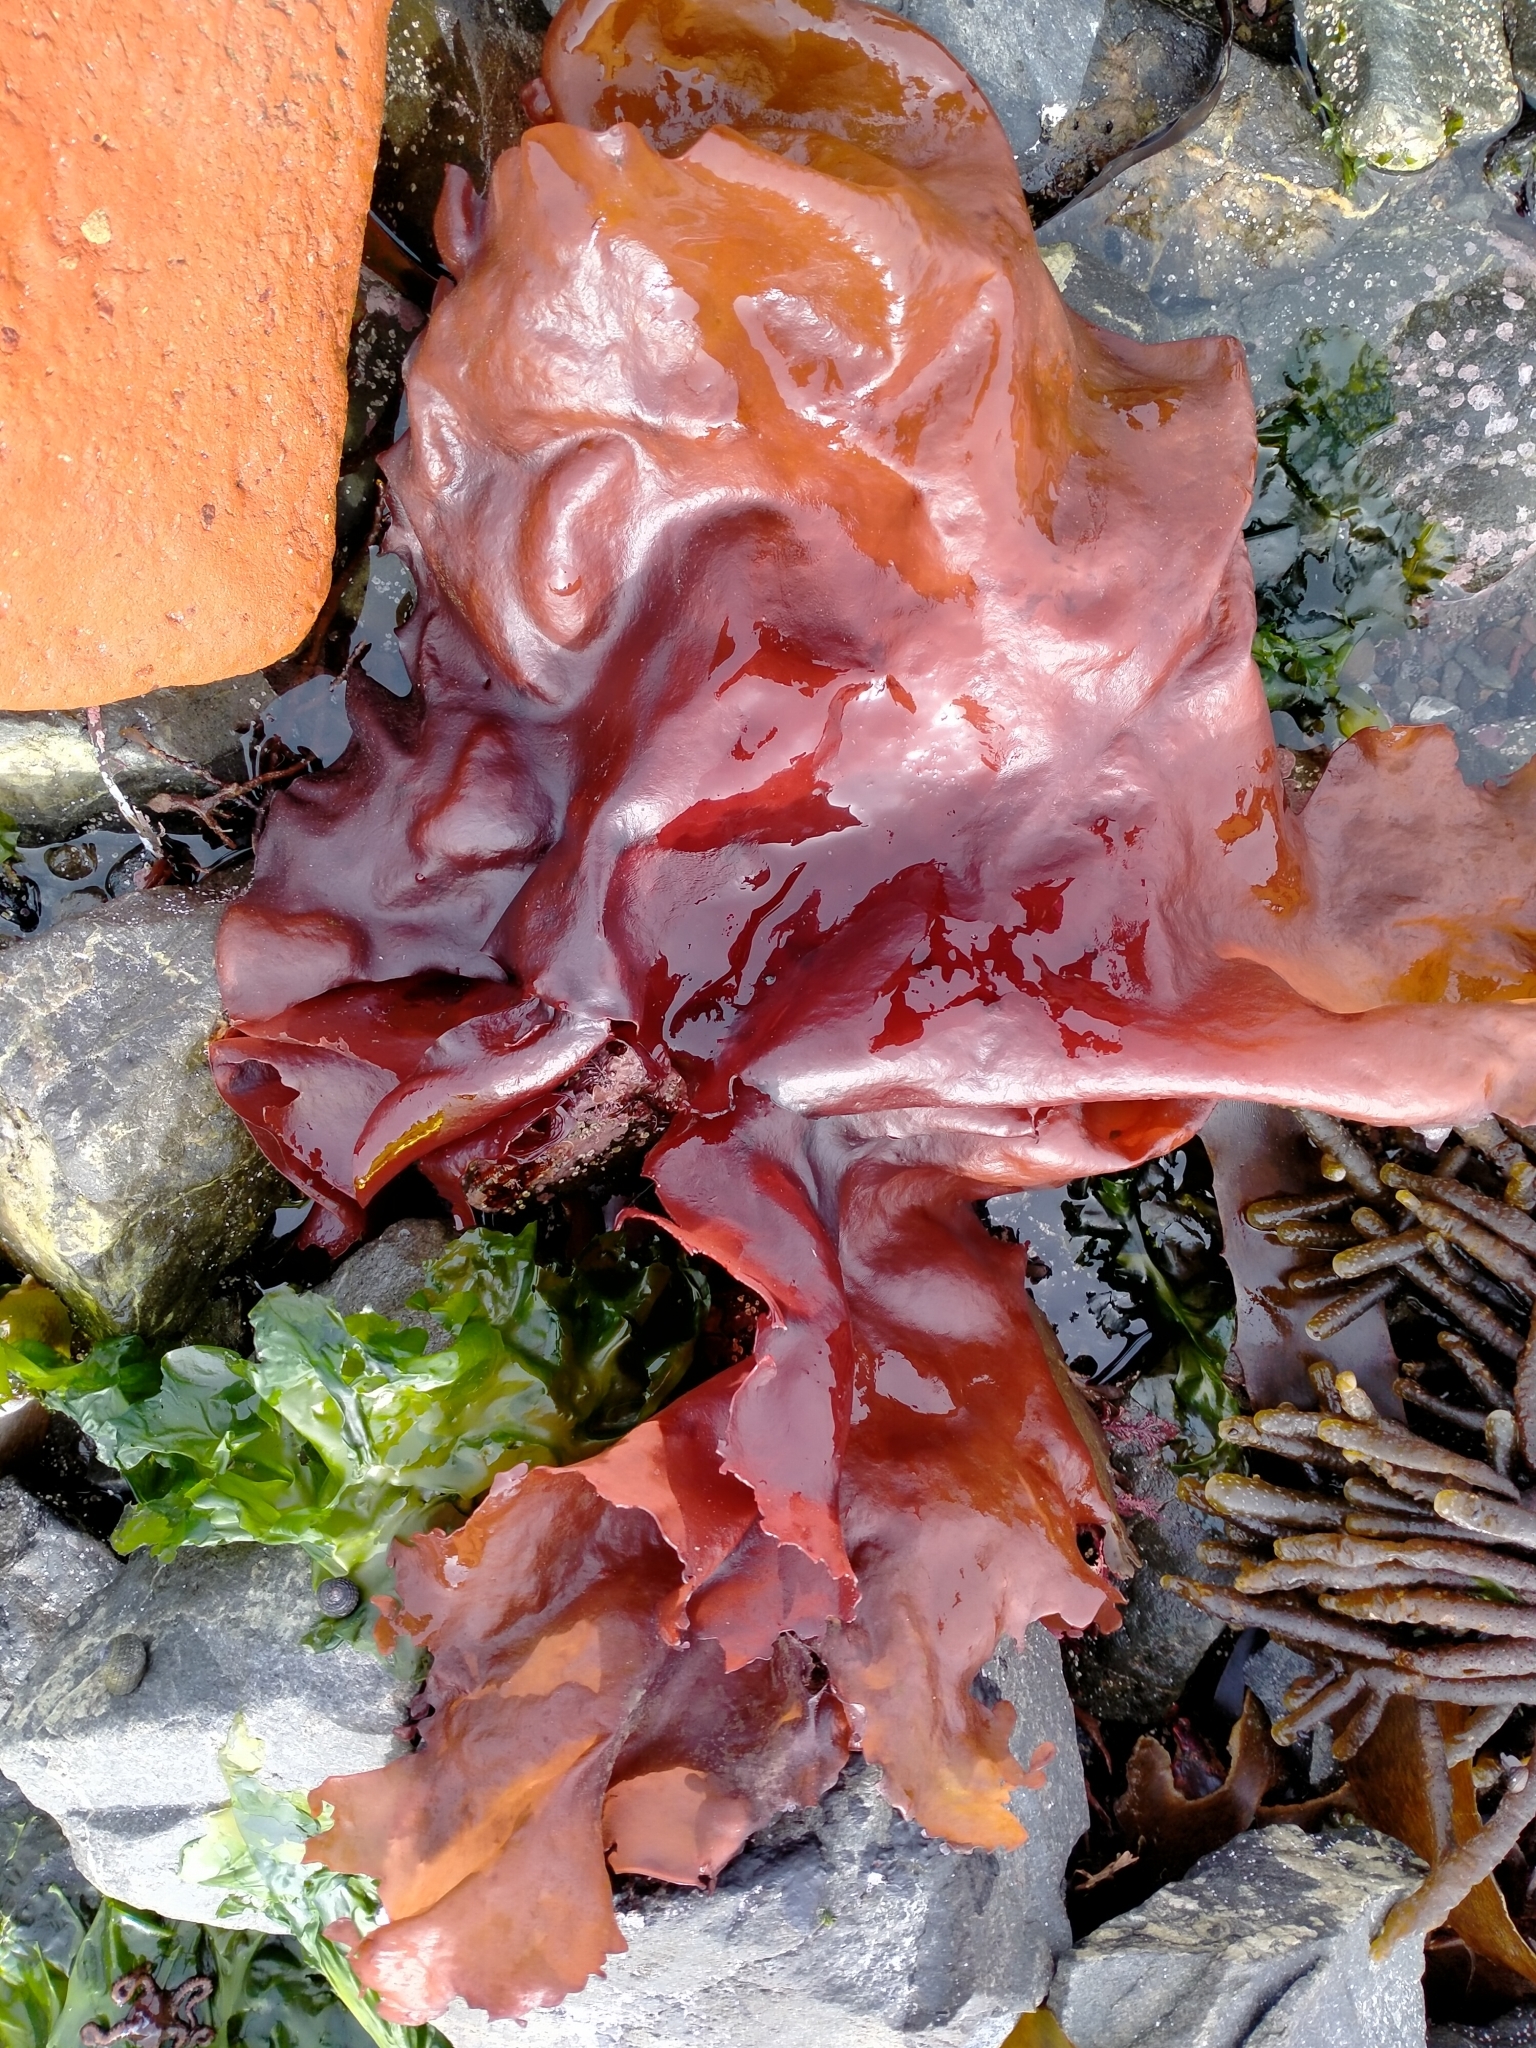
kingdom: Plantae
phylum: Rhodophyta
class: Florideophyceae
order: Halymeniales
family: Halymeniaceae
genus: Pachymenia
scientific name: Pachymenia laciniata
